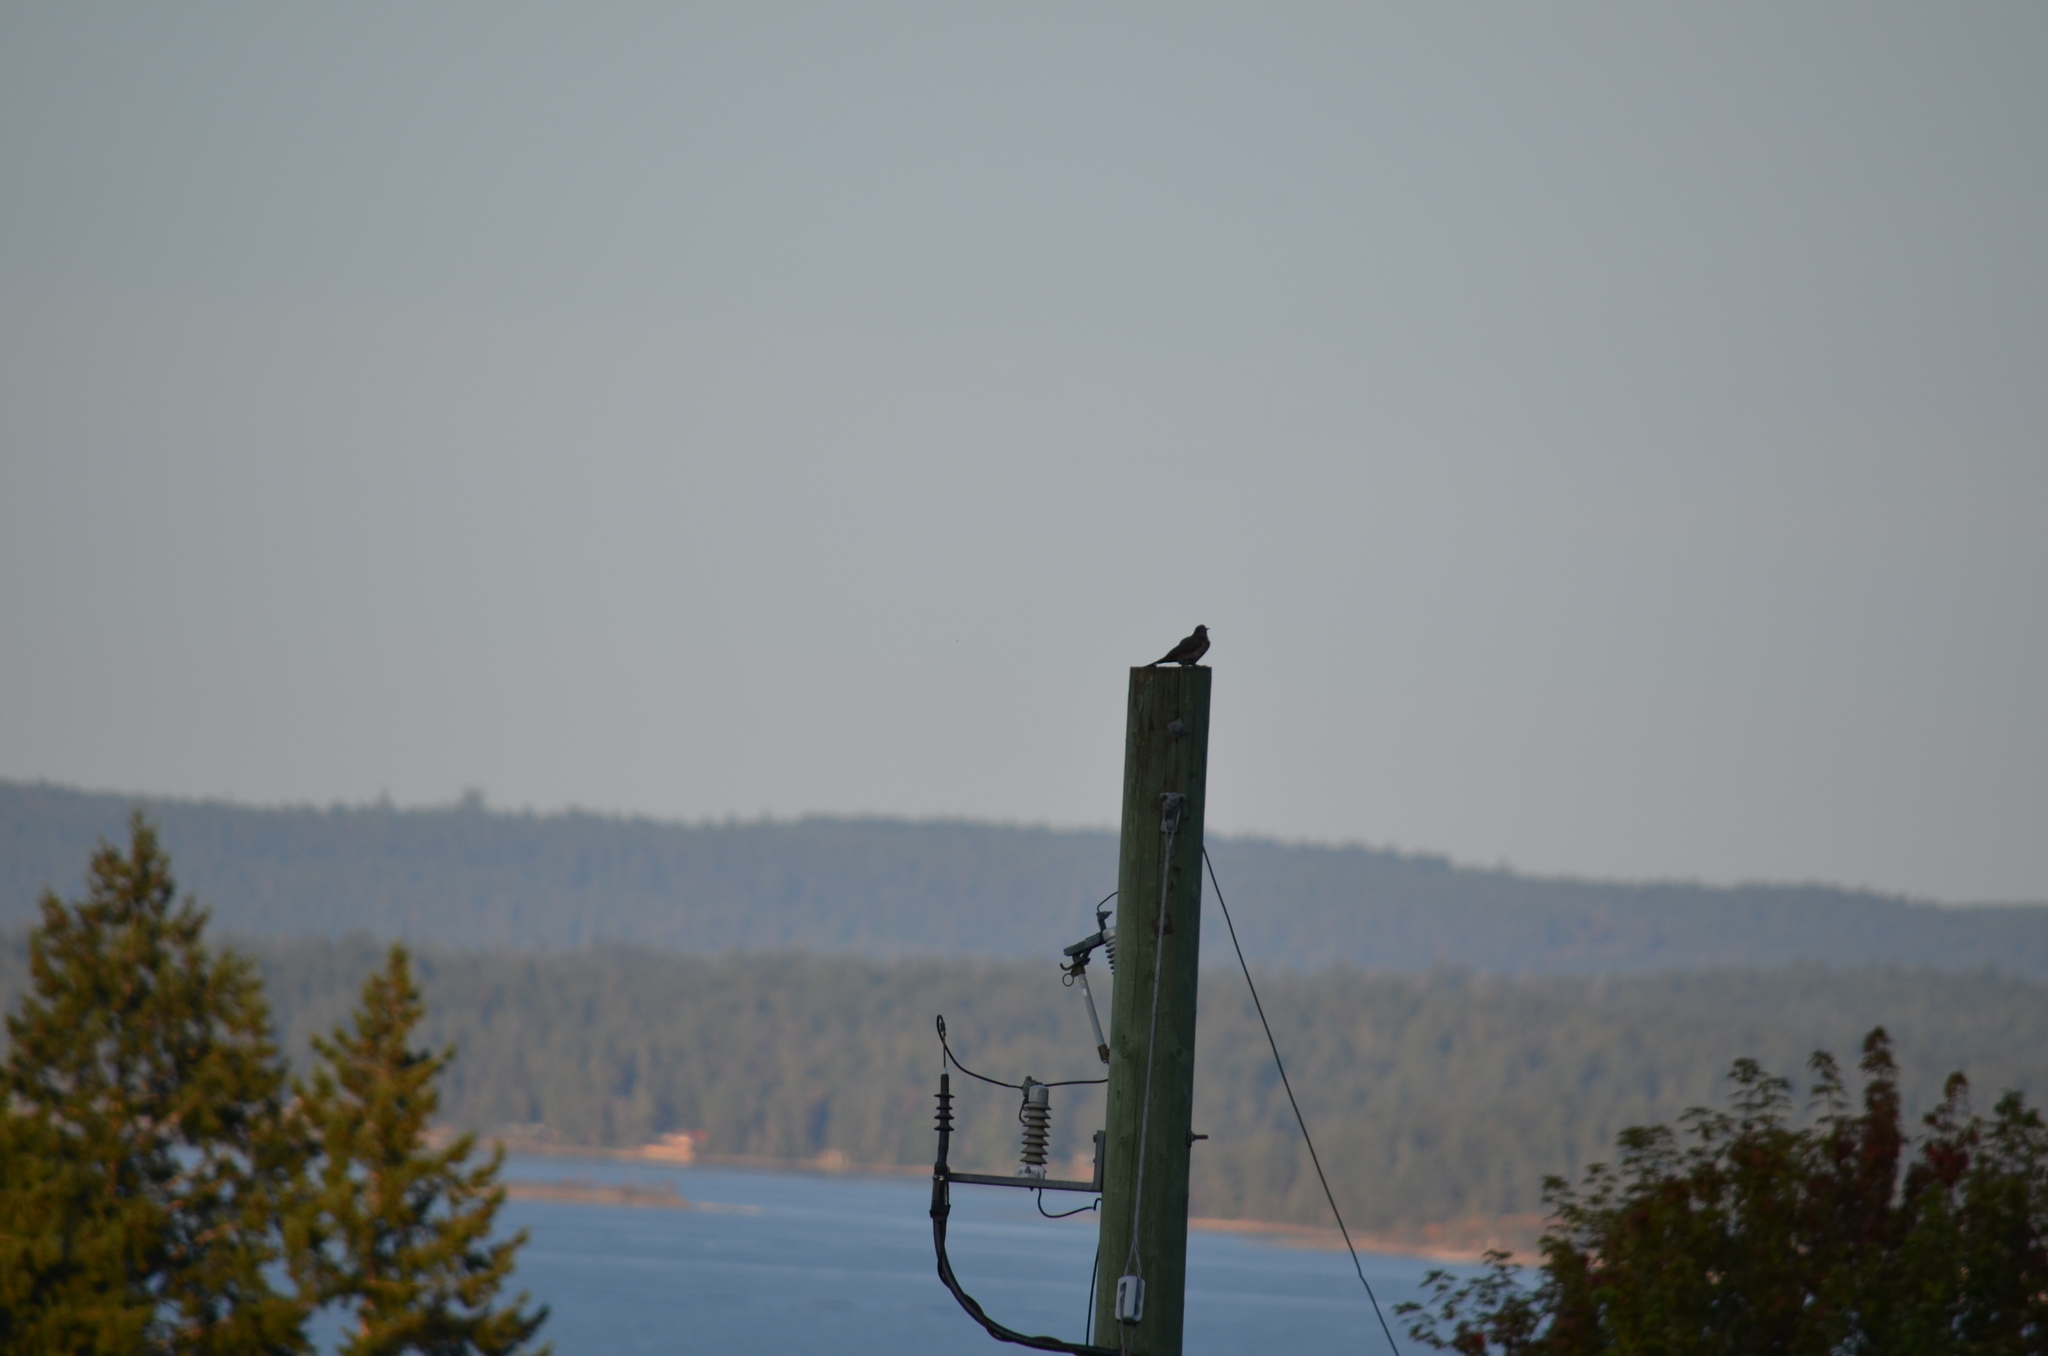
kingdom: Animalia
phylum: Chordata
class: Aves
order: Piciformes
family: Picidae
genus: Colaptes
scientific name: Colaptes auratus
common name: Northern flicker
